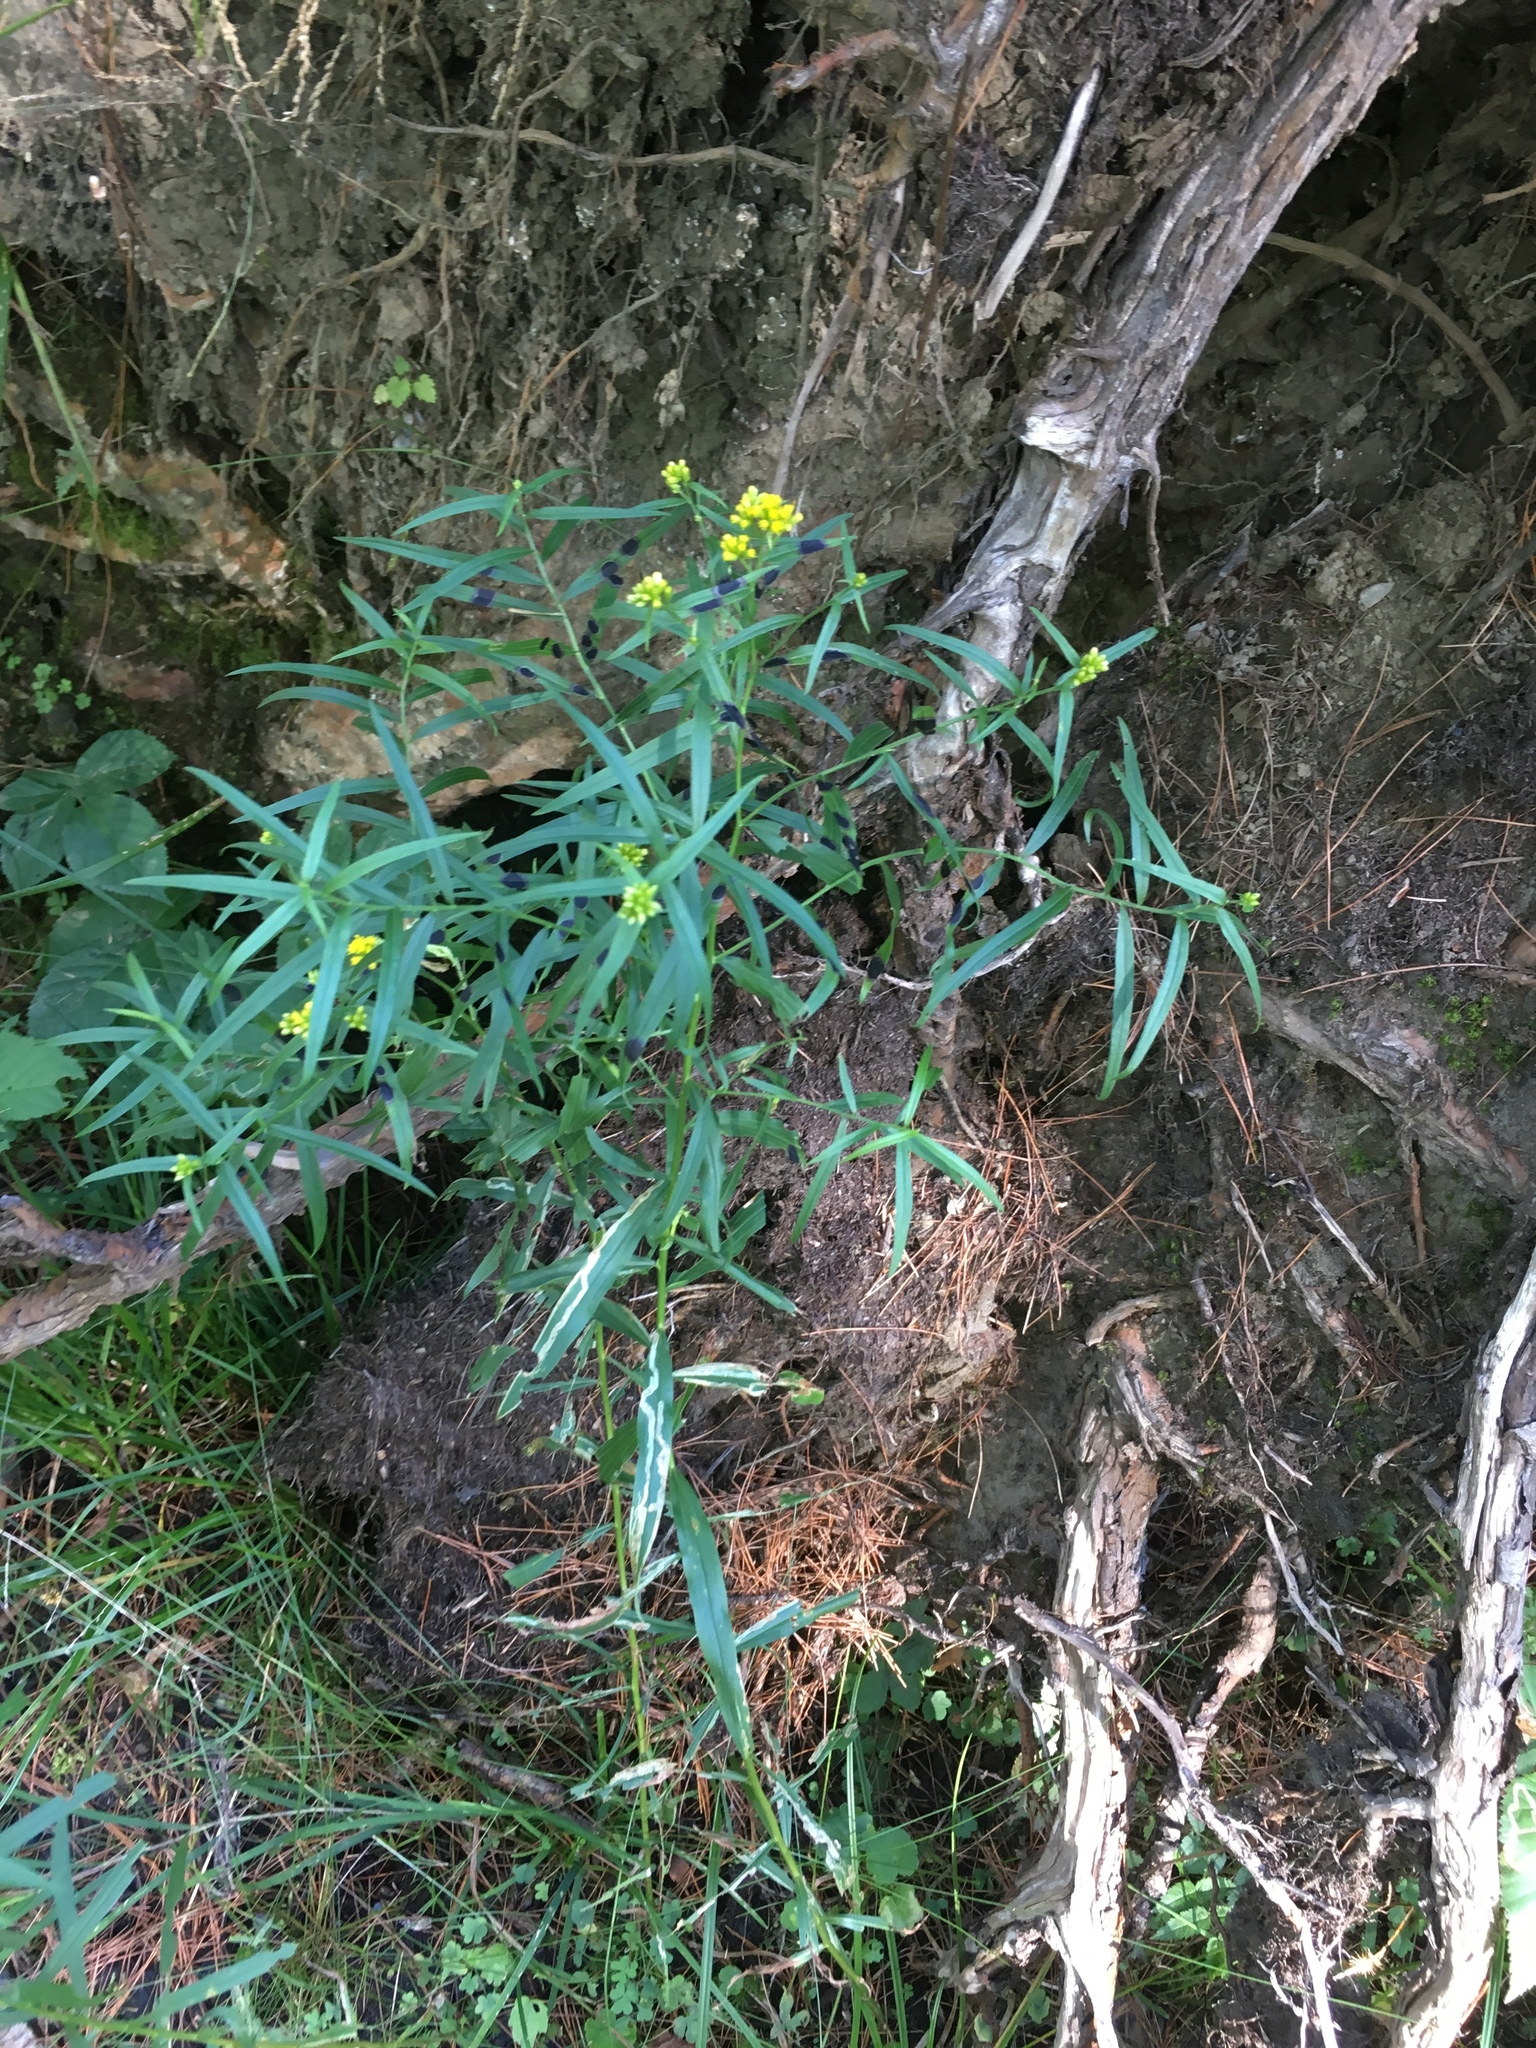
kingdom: Plantae
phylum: Tracheophyta
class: Magnoliopsida
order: Asterales
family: Asteraceae
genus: Euthamia
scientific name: Euthamia graminifolia
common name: Common goldentop
